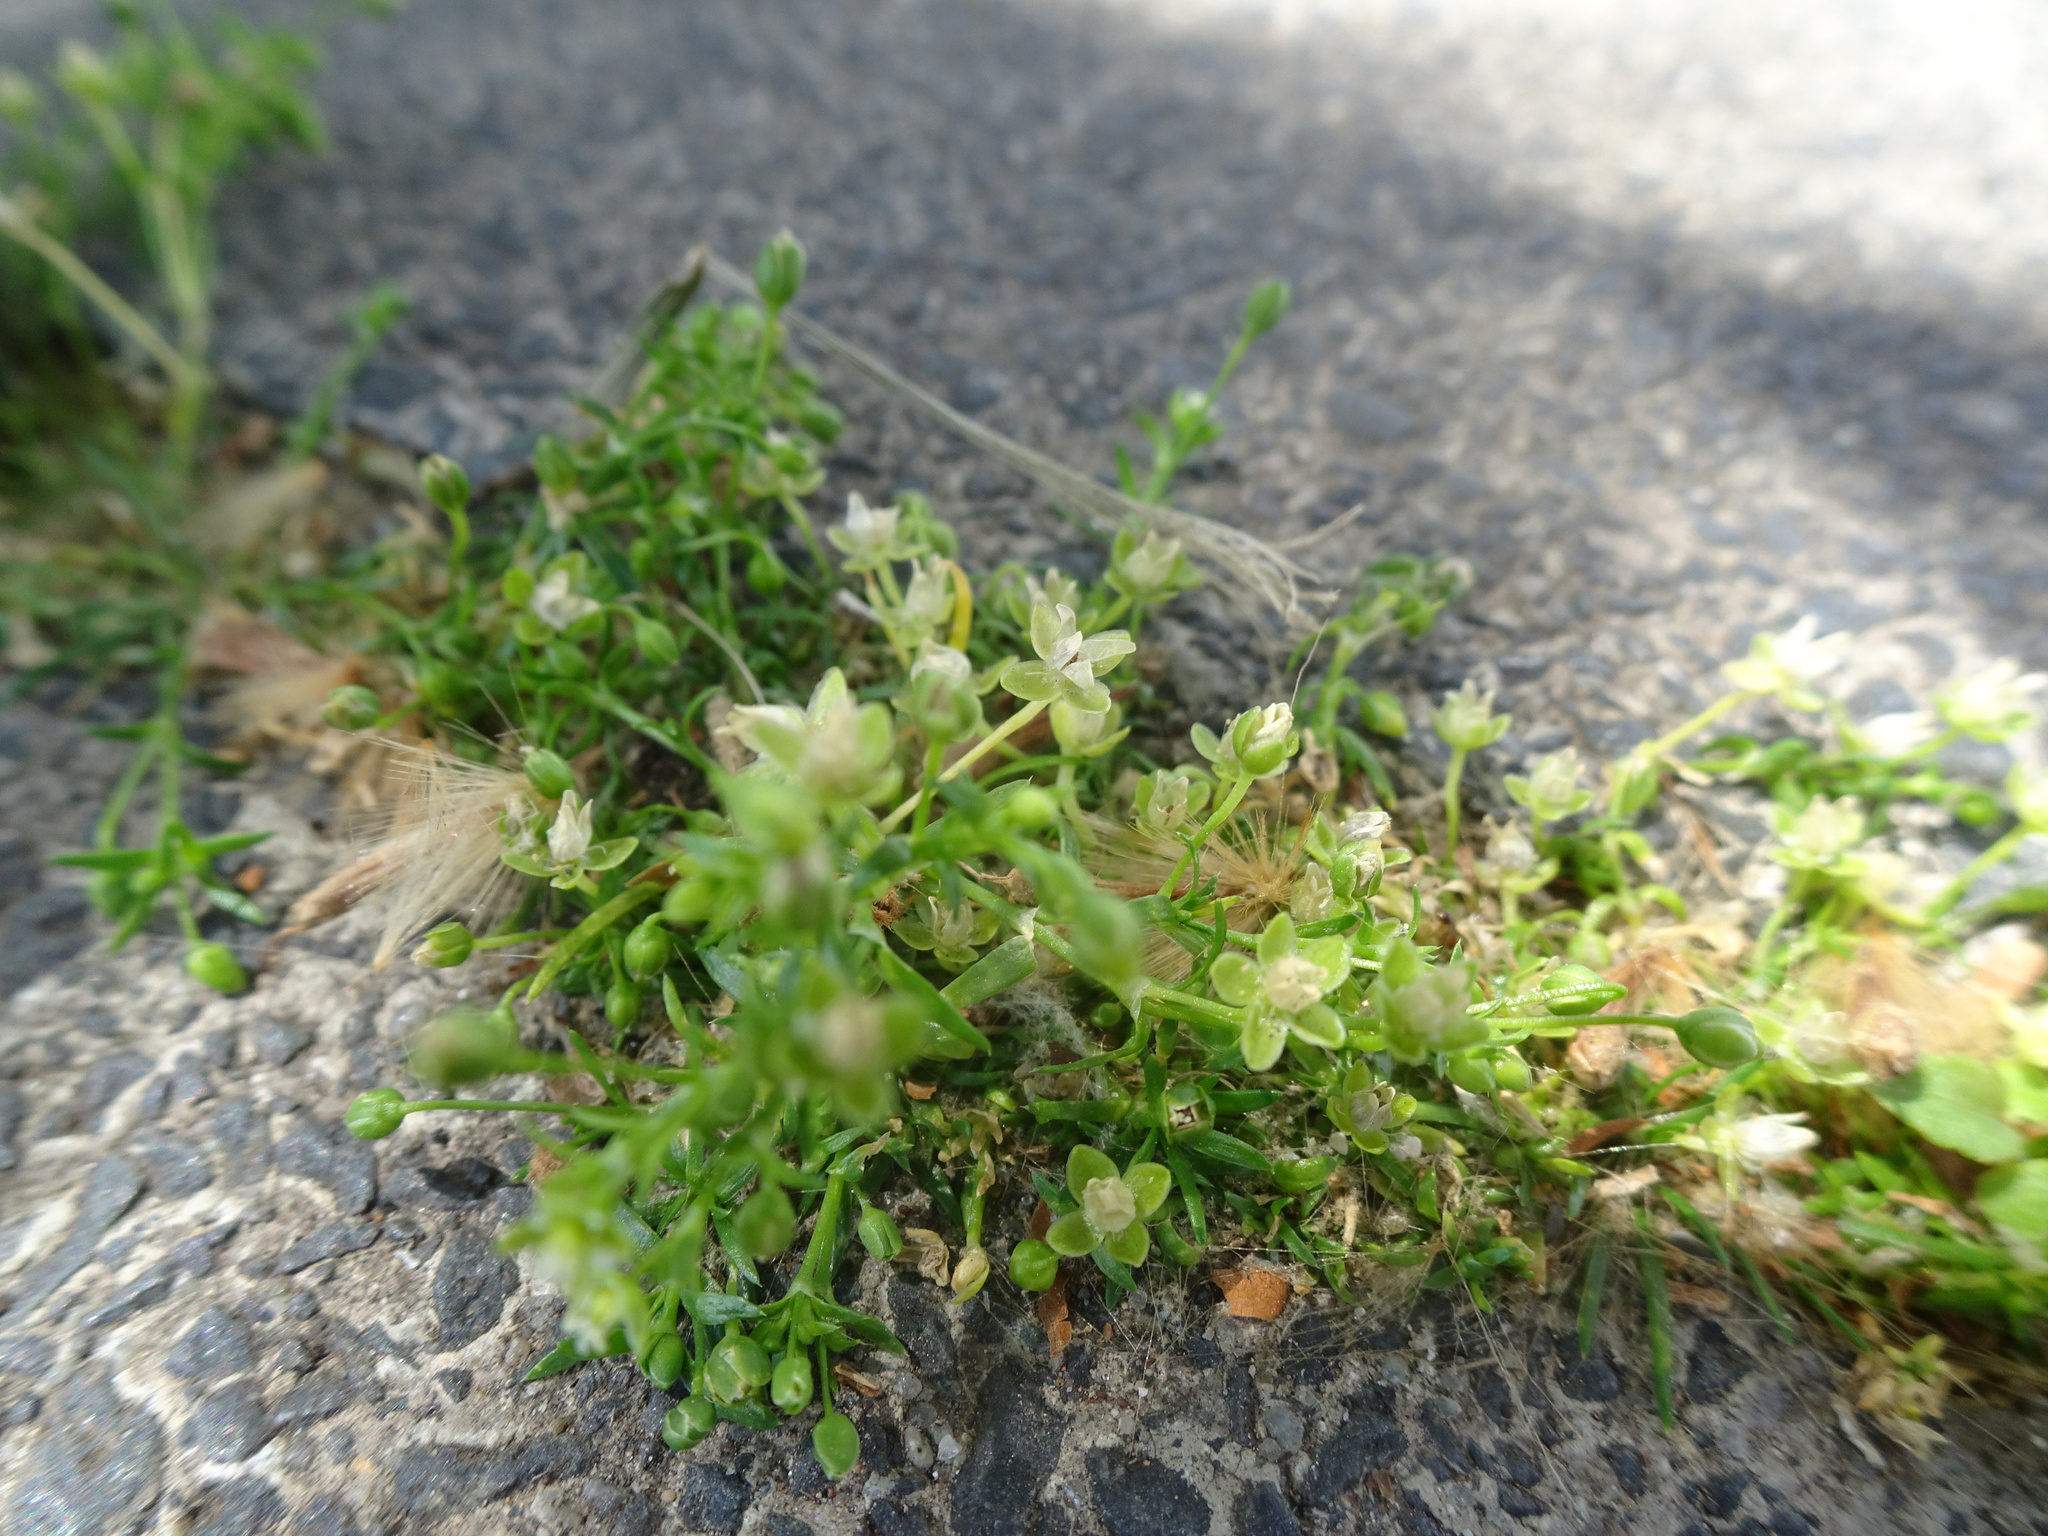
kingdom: Plantae
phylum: Tracheophyta
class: Magnoliopsida
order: Caryophyllales
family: Caryophyllaceae
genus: Sagina
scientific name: Sagina procumbens
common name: Procumbent pearlwort
